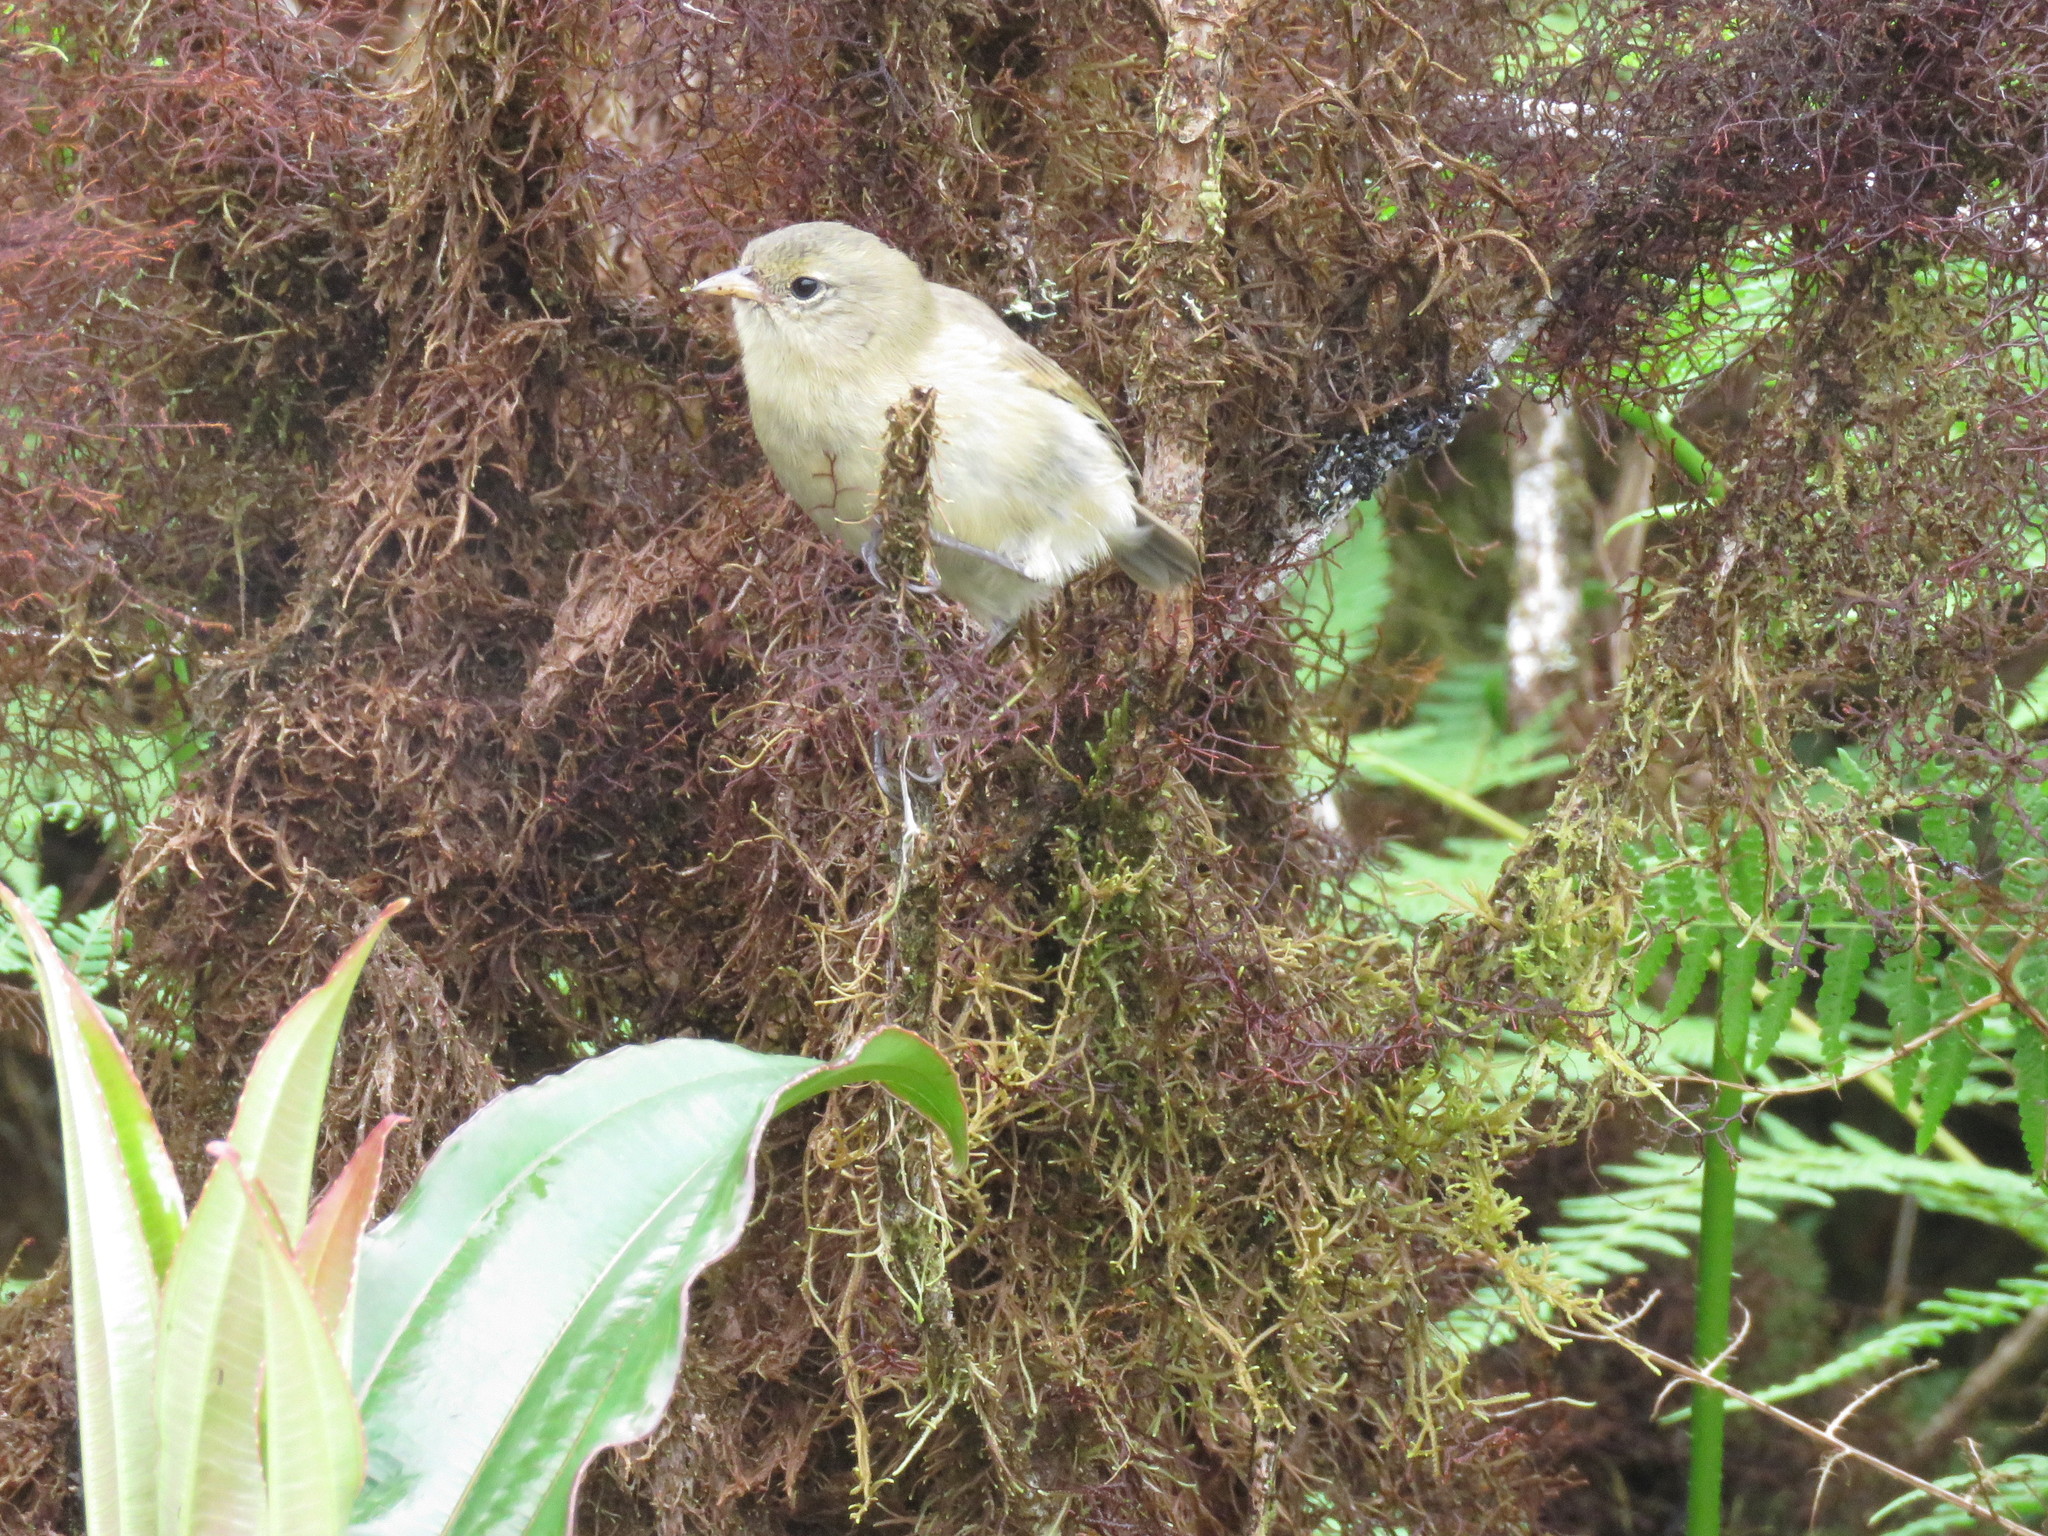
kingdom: Animalia
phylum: Chordata
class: Aves
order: Passeriformes
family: Thraupidae
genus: Certhidea
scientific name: Certhidea fusca
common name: Grey warbler-finch
